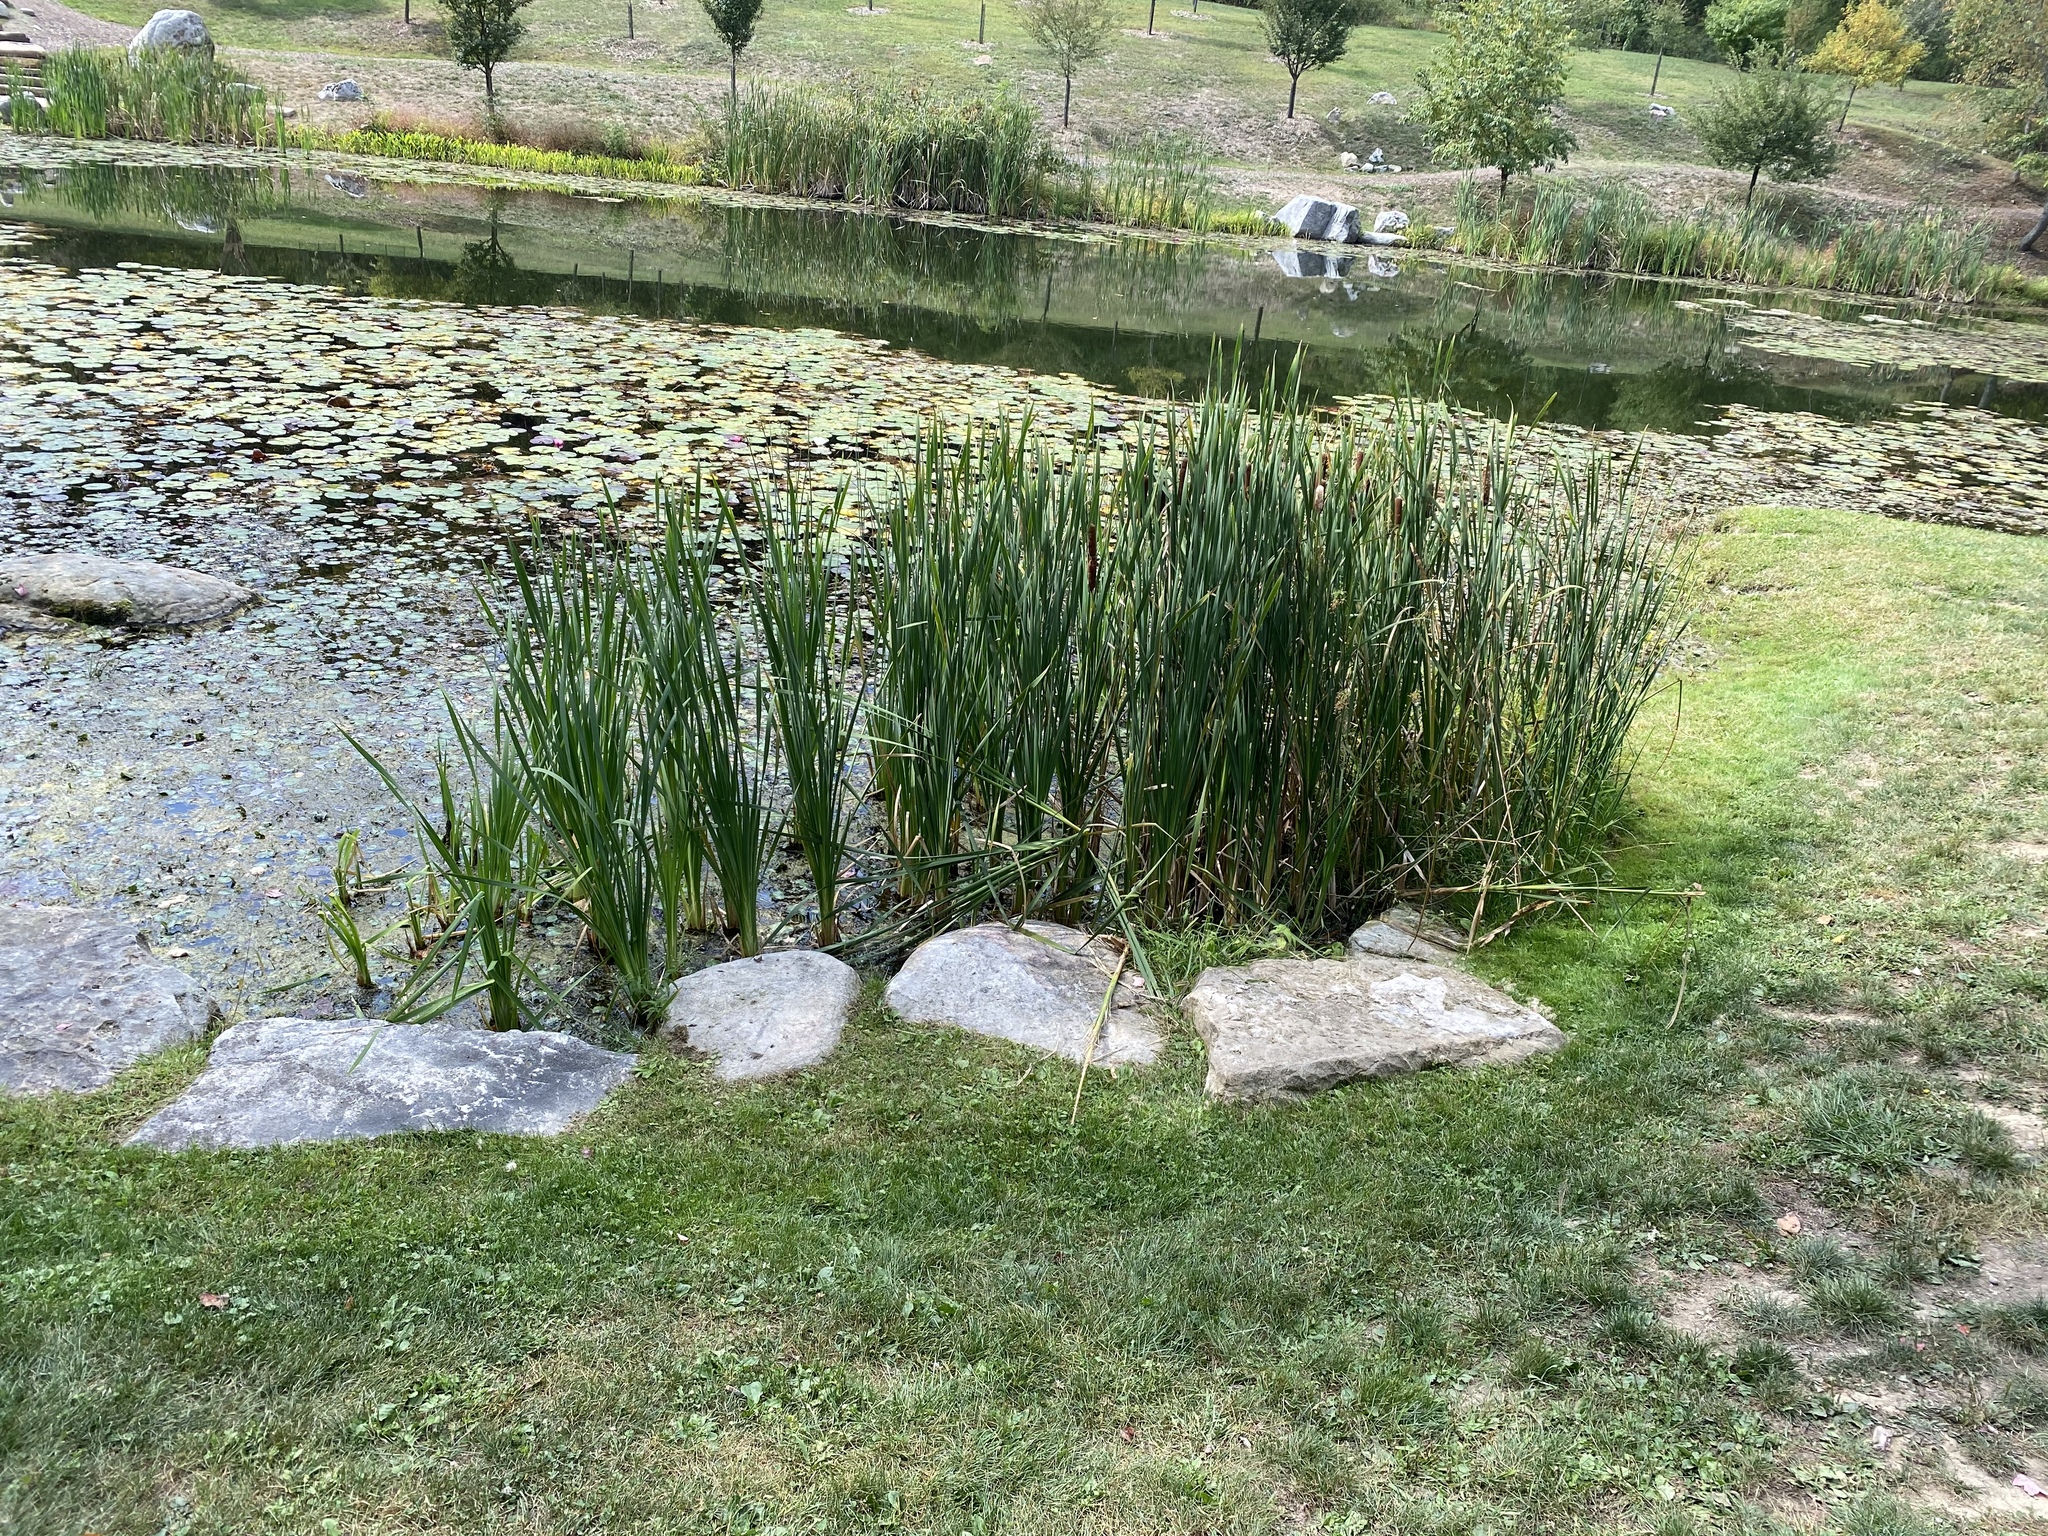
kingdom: Plantae
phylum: Tracheophyta
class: Liliopsida
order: Poales
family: Typhaceae
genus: Typha
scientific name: Typha latifolia
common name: Broadleaf cattail
